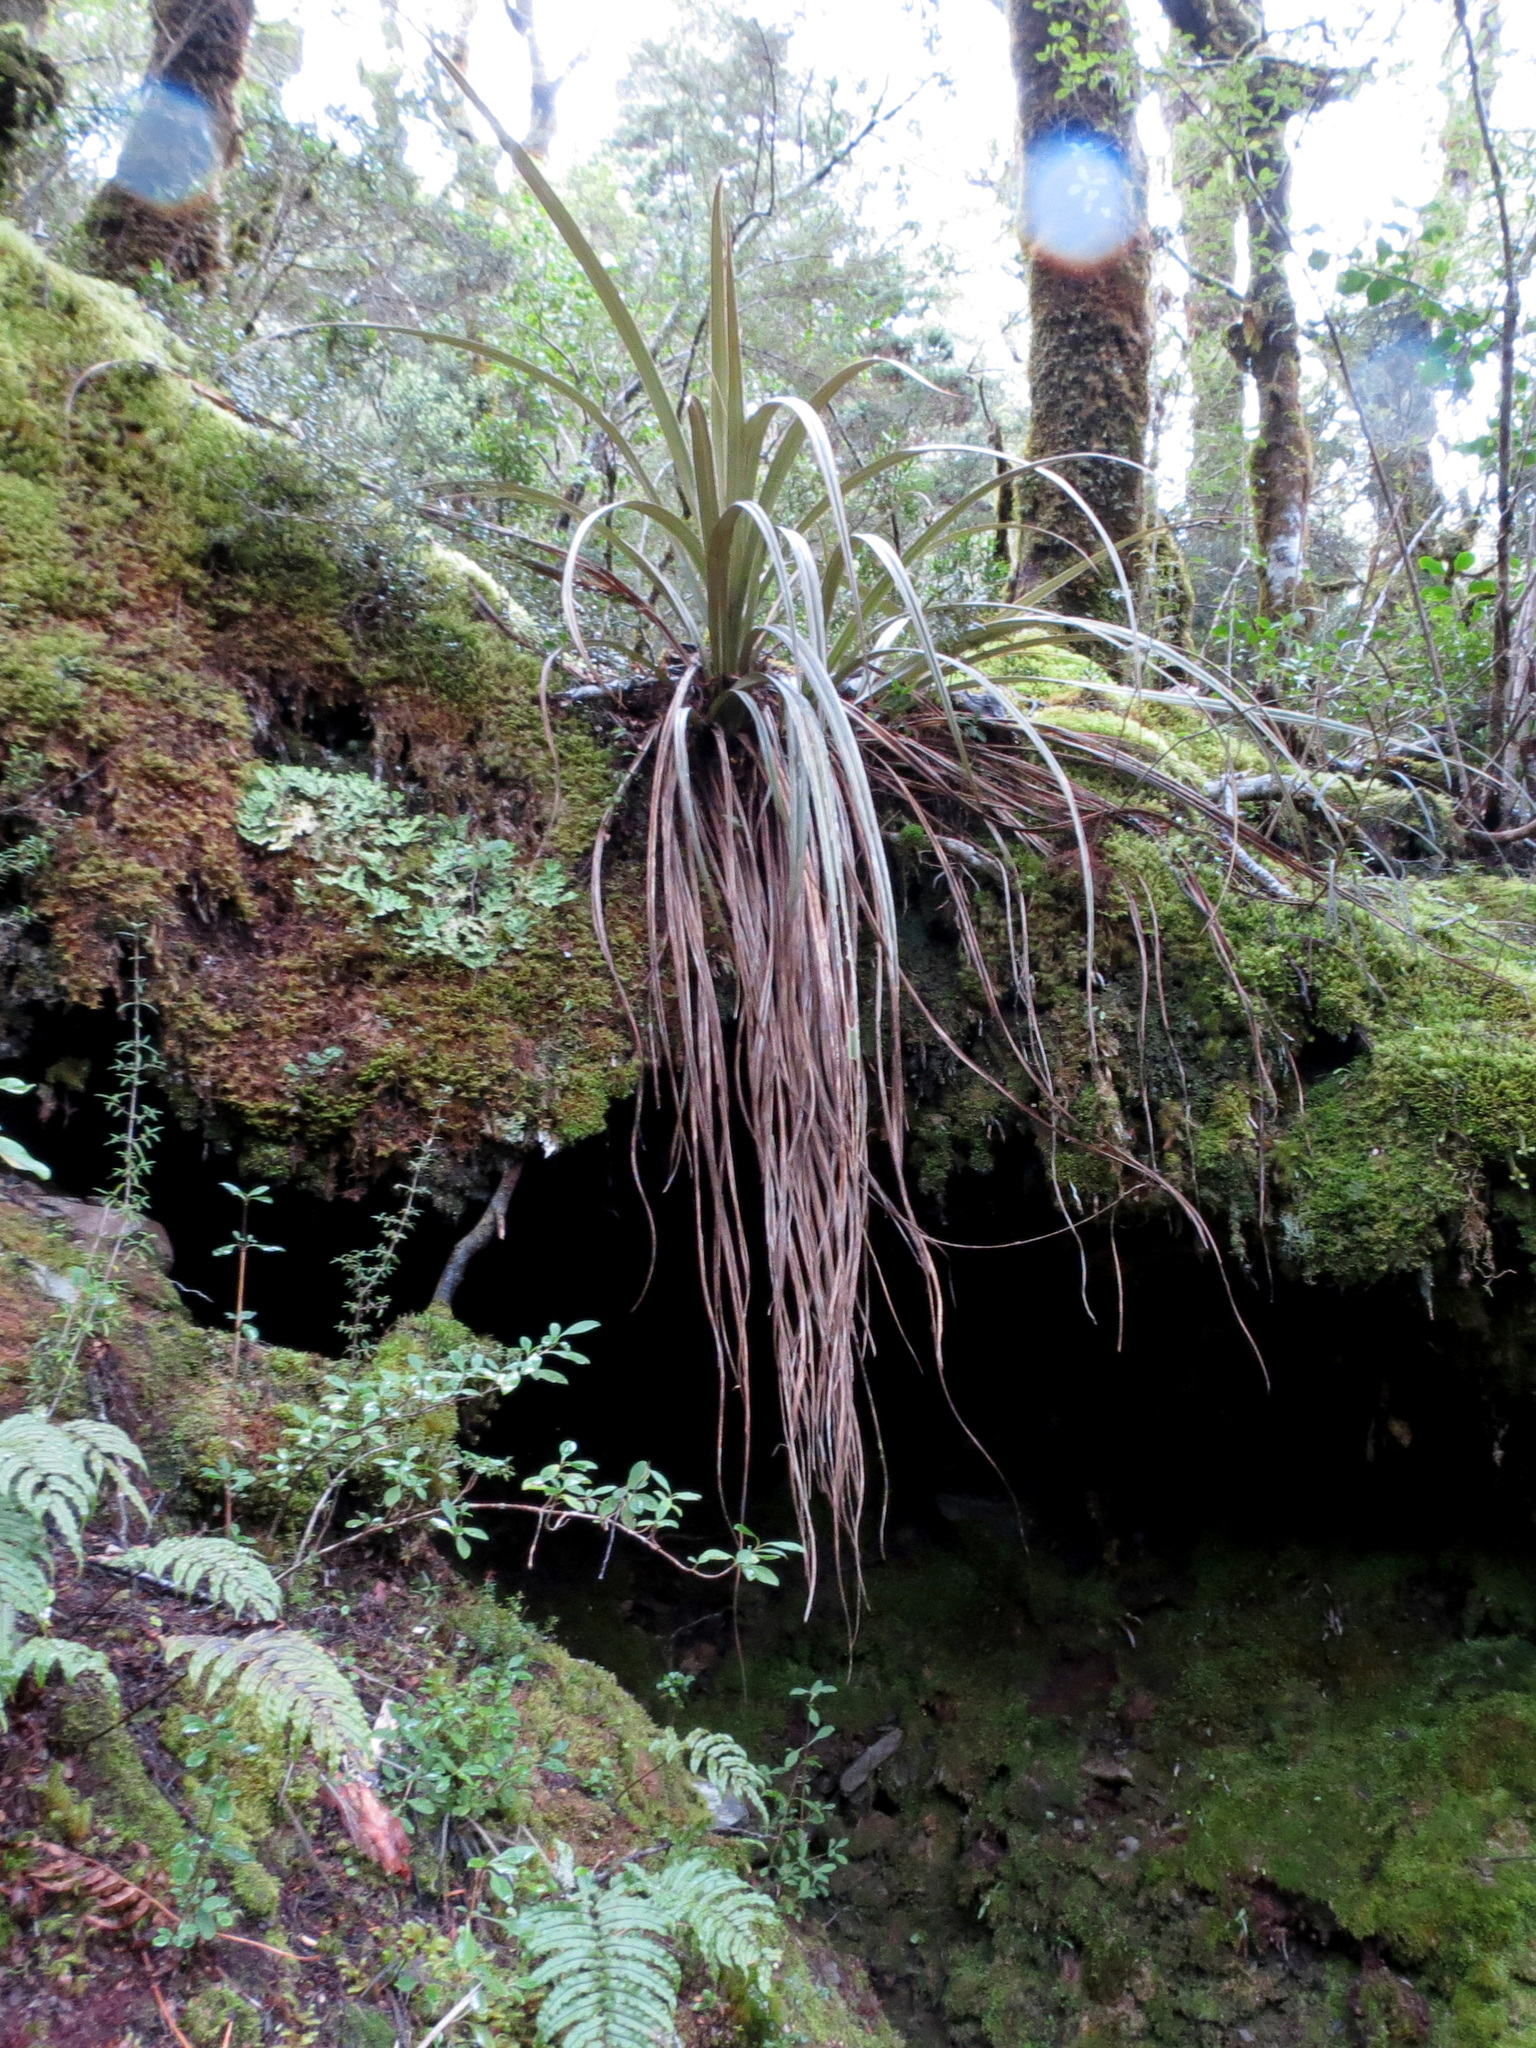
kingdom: Plantae
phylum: Tracheophyta
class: Liliopsida
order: Asparagales
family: Asteliaceae
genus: Astelia
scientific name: Astelia nervosa
